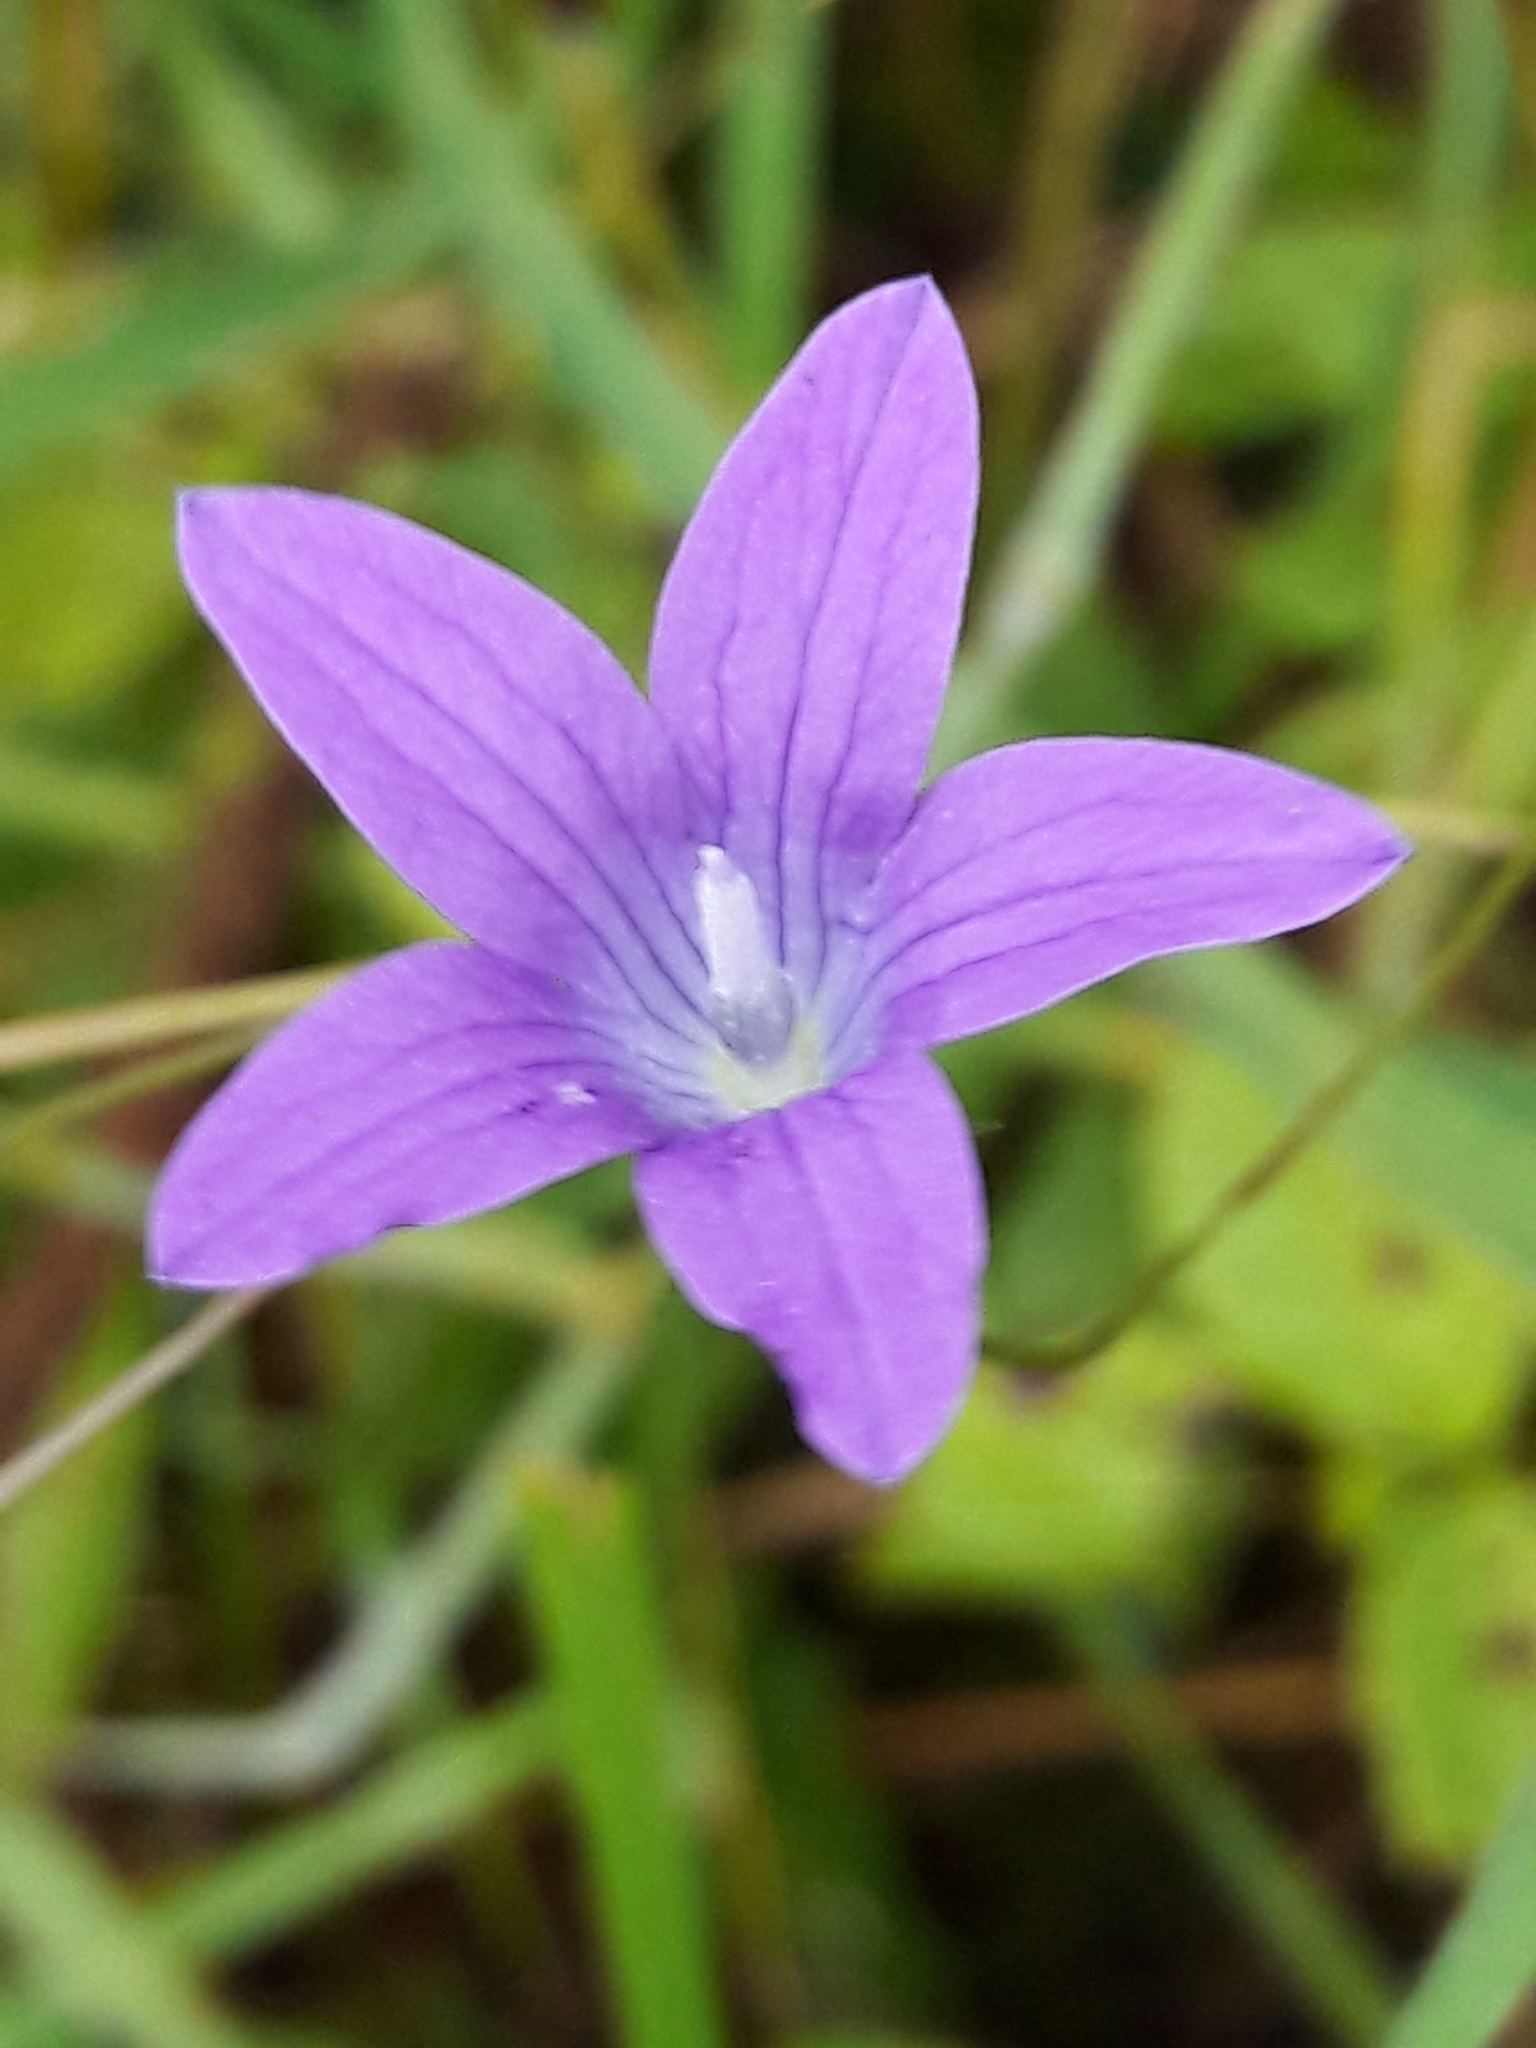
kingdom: Plantae
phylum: Tracheophyta
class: Magnoliopsida
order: Asterales
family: Campanulaceae
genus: Campanula
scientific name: Campanula patula
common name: Spreading bellflower
